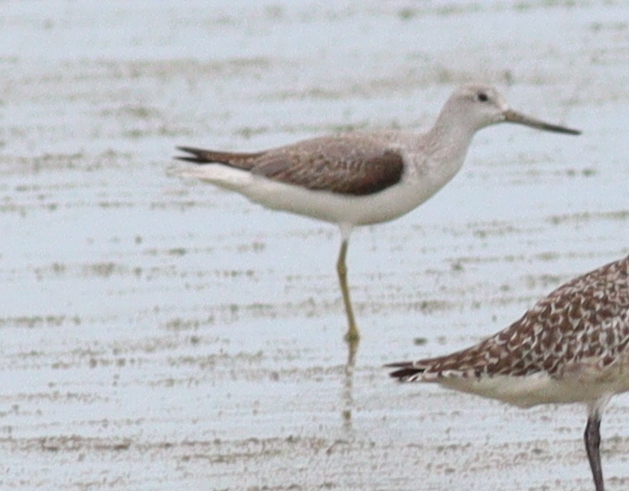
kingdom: Animalia
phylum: Chordata
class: Aves
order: Charadriiformes
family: Scolopacidae
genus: Tringa
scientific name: Tringa guttifer
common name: Nordmann's greenshank
